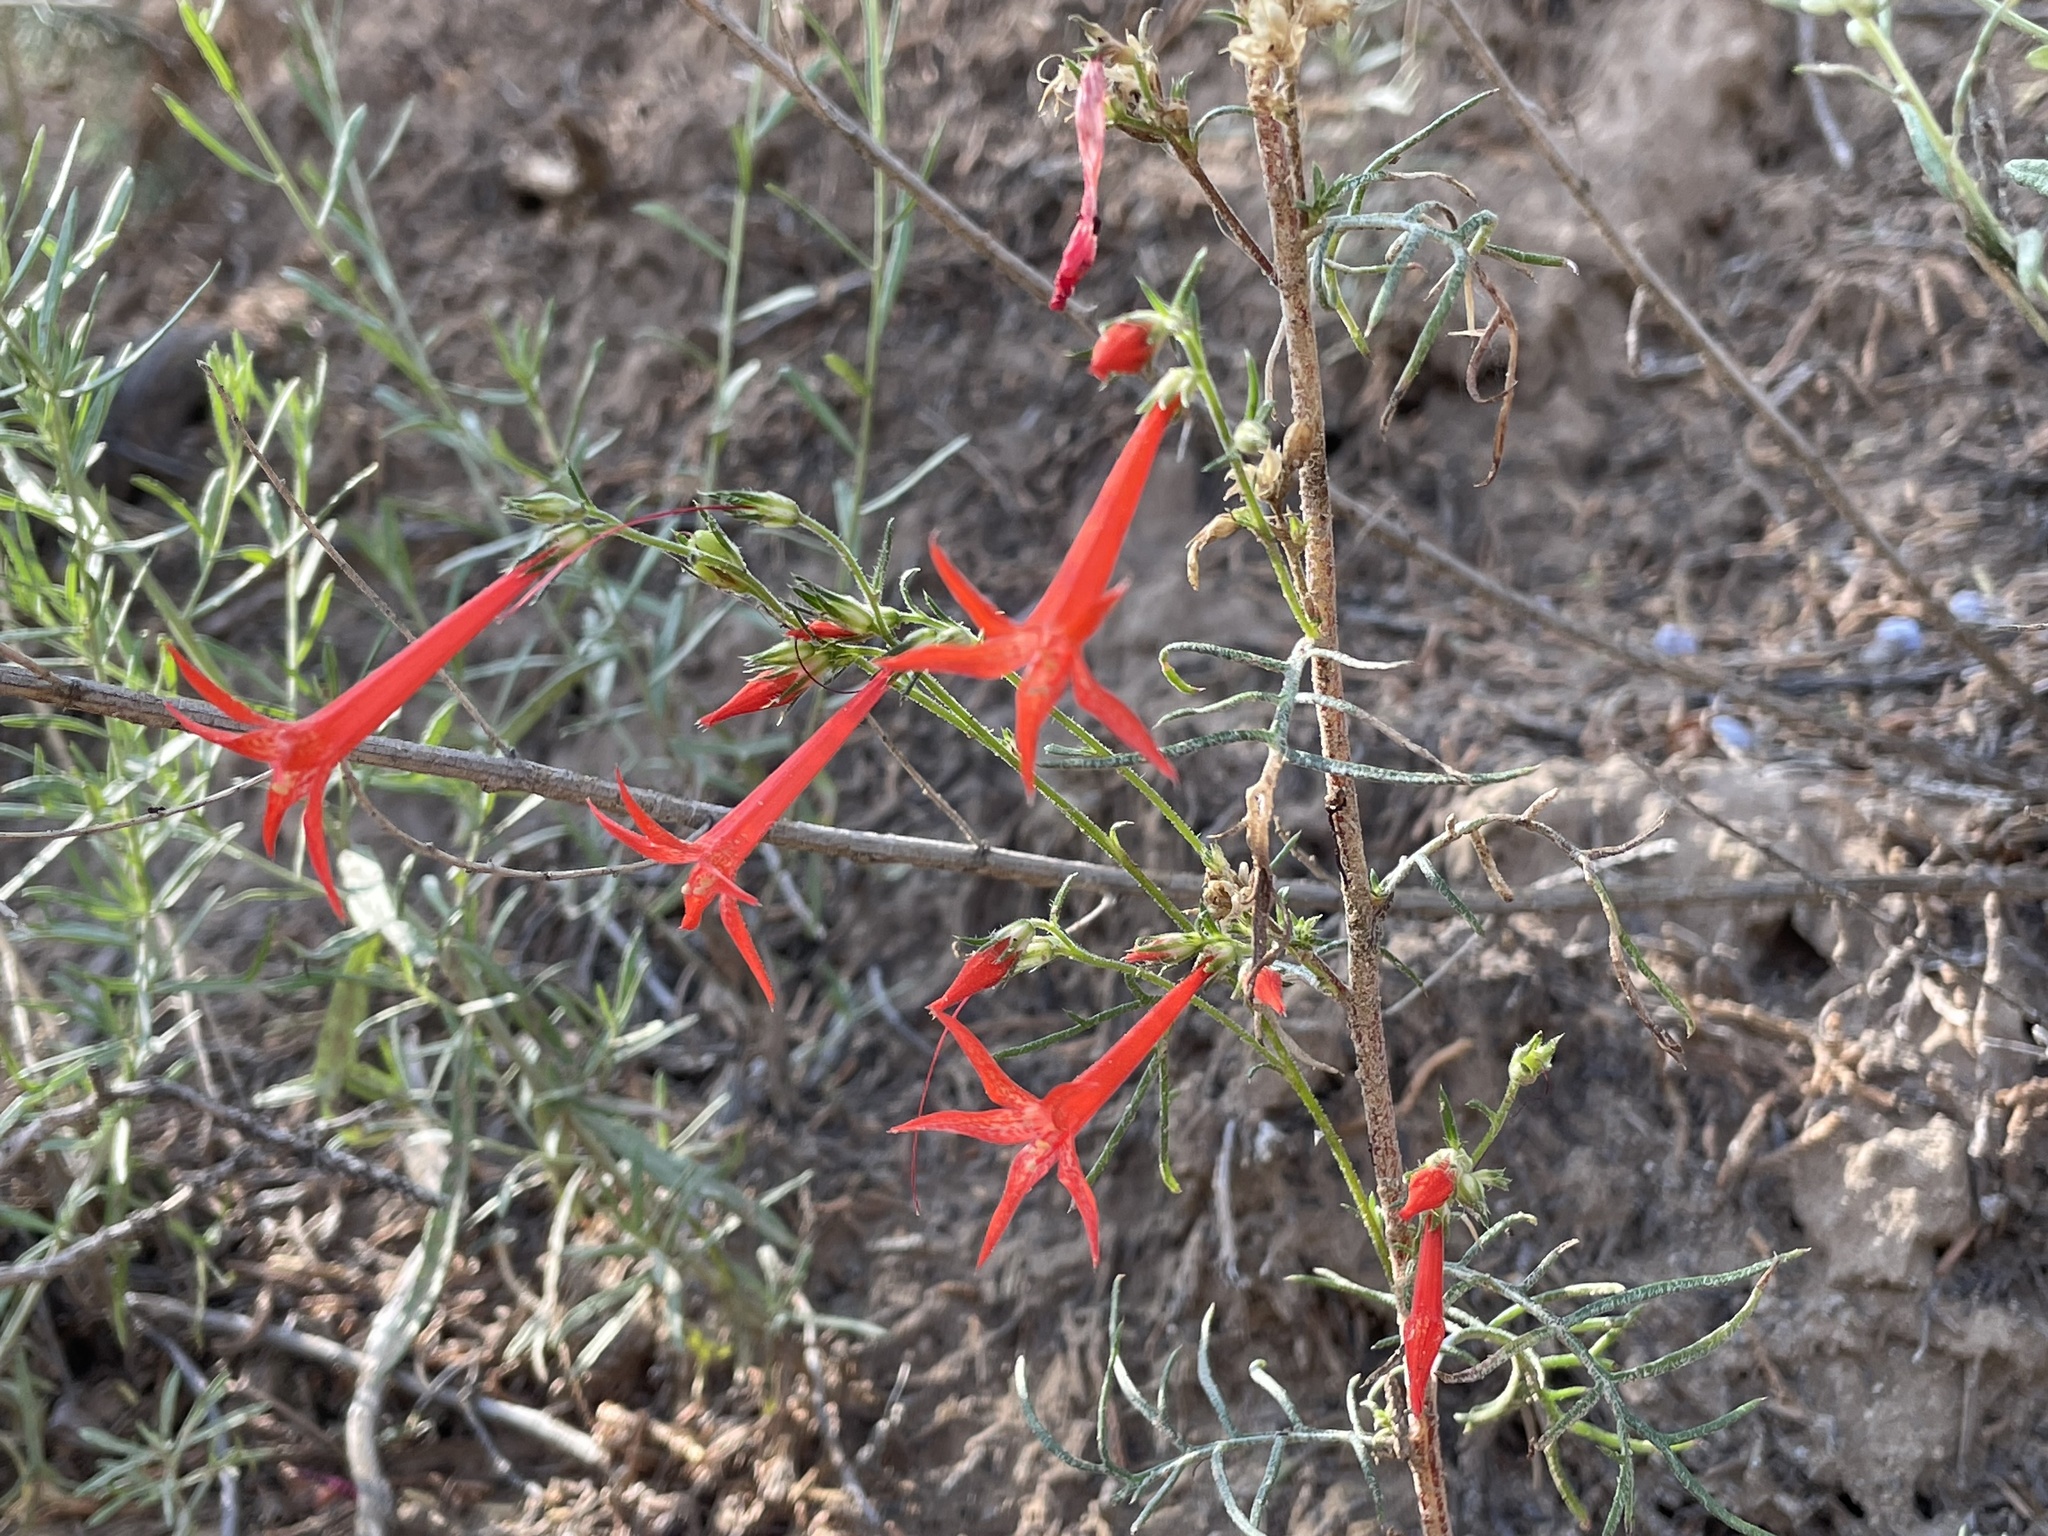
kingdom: Plantae
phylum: Tracheophyta
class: Magnoliopsida
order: Ericales
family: Polemoniaceae
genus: Ipomopsis
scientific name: Ipomopsis aggregata
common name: Scarlet gilia
